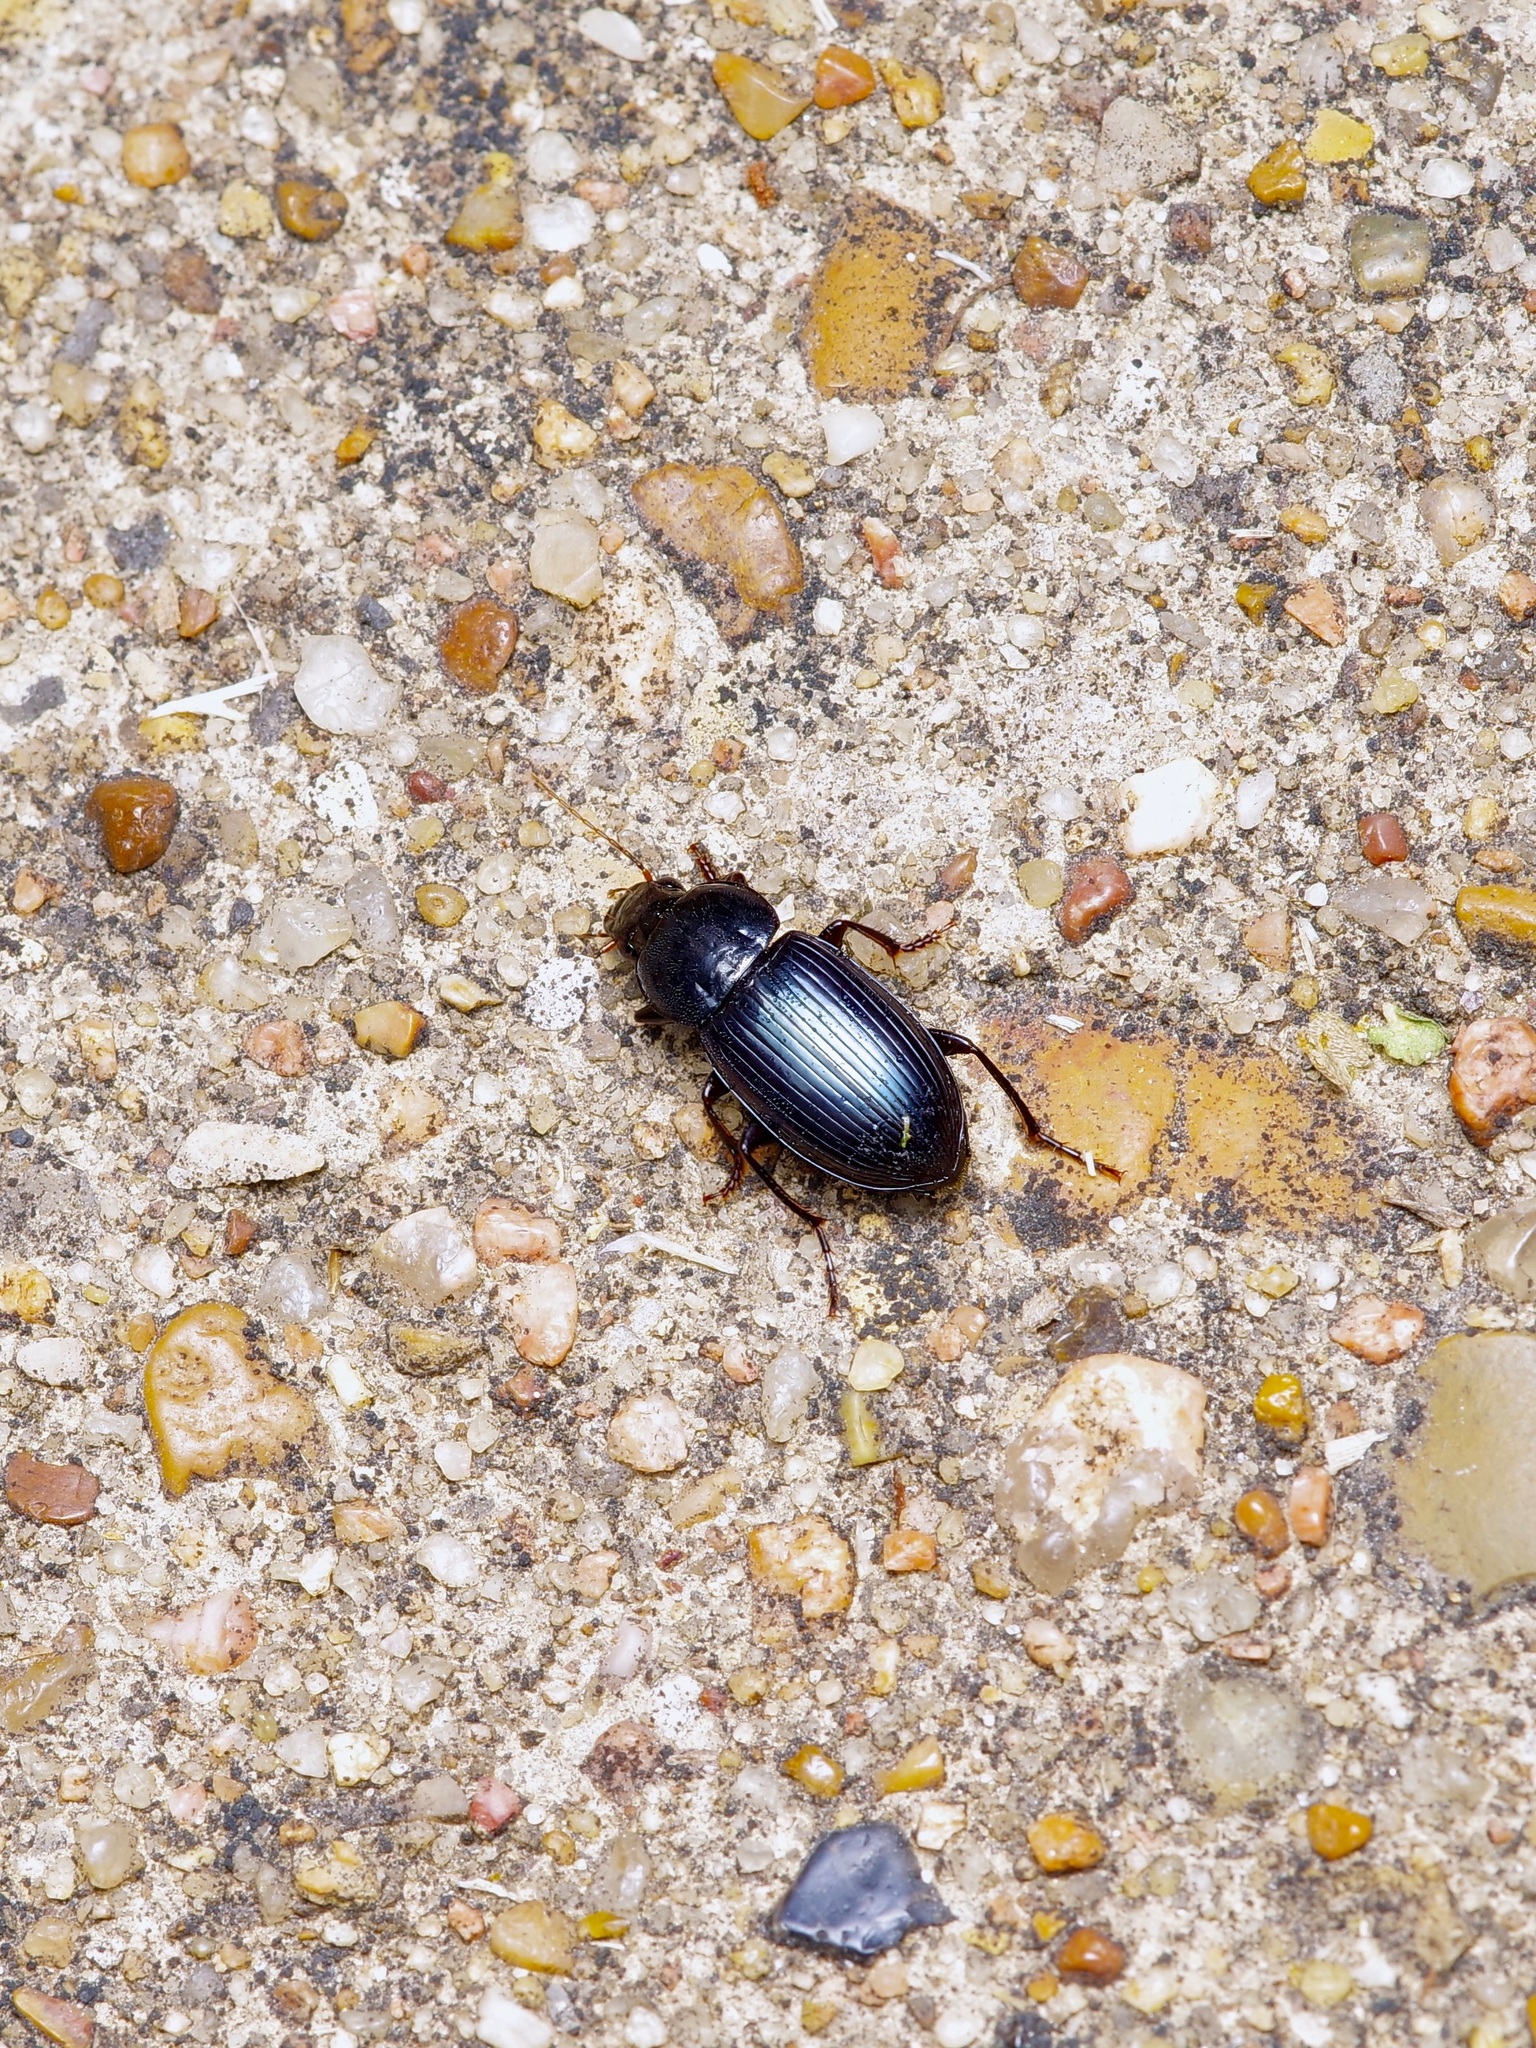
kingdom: Animalia
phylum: Arthropoda
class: Insecta
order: Coleoptera
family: Carabidae
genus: Aztecarpalus
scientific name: Aztecarpalus schaefferi
